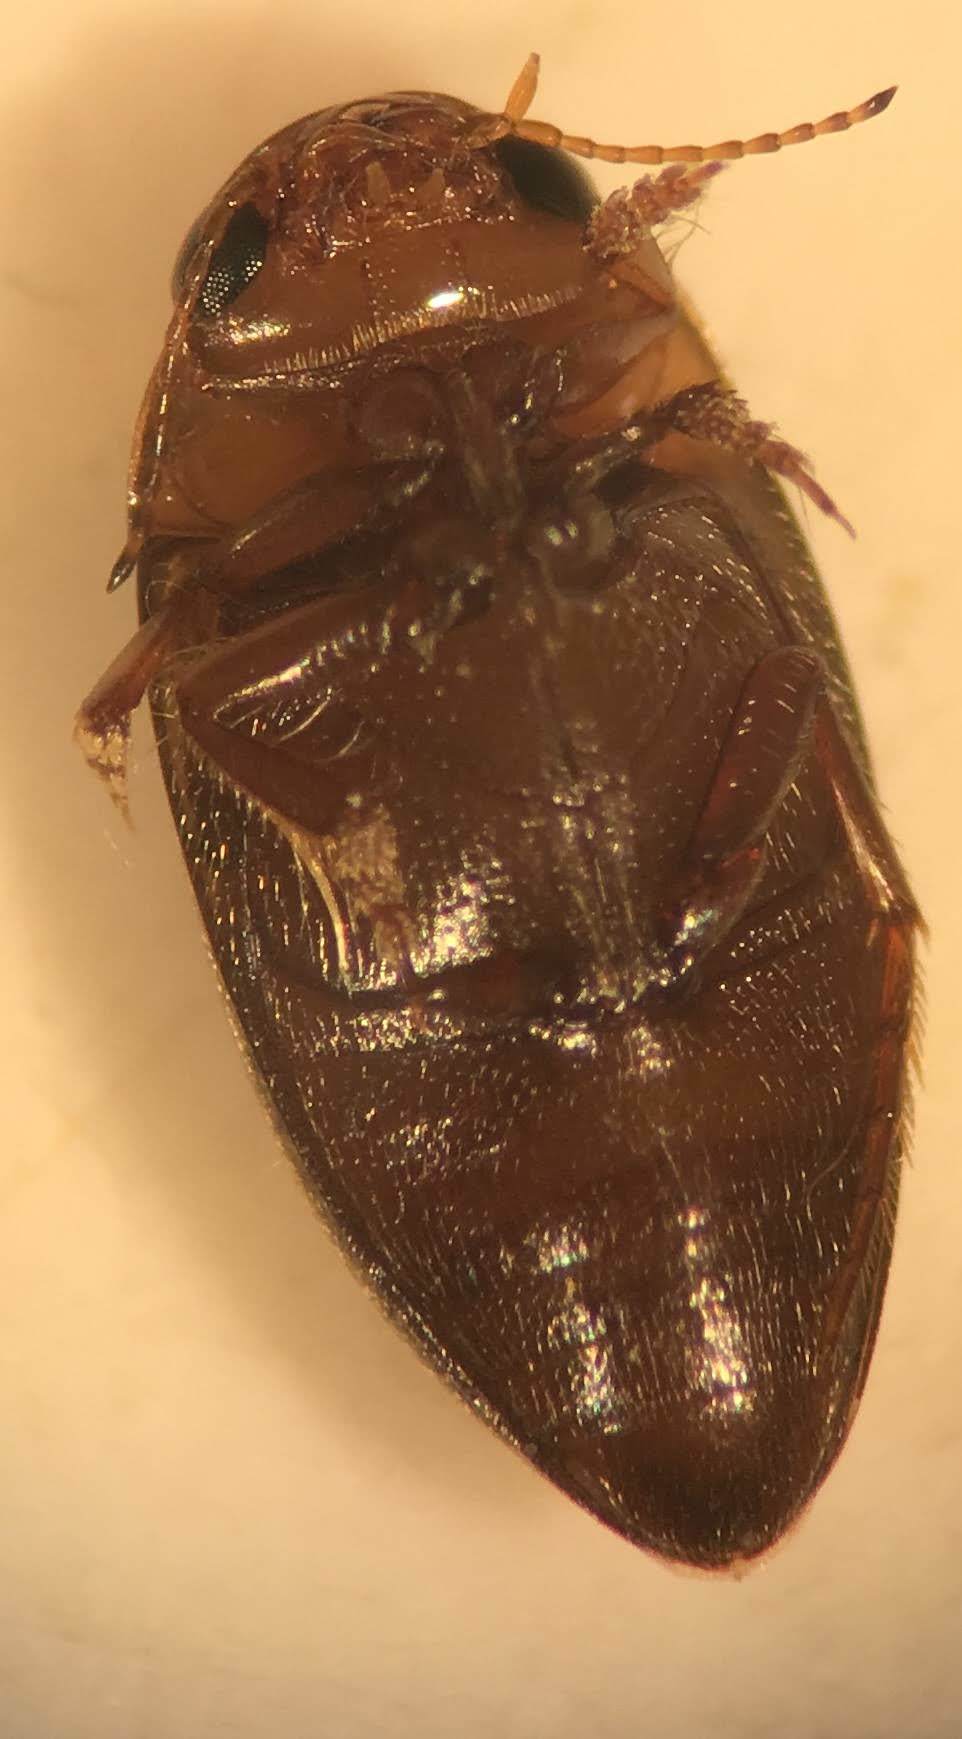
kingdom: Animalia
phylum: Arthropoda
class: Insecta
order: Coleoptera
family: Dytiscidae
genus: Neoporus
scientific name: Neoporus shermani
